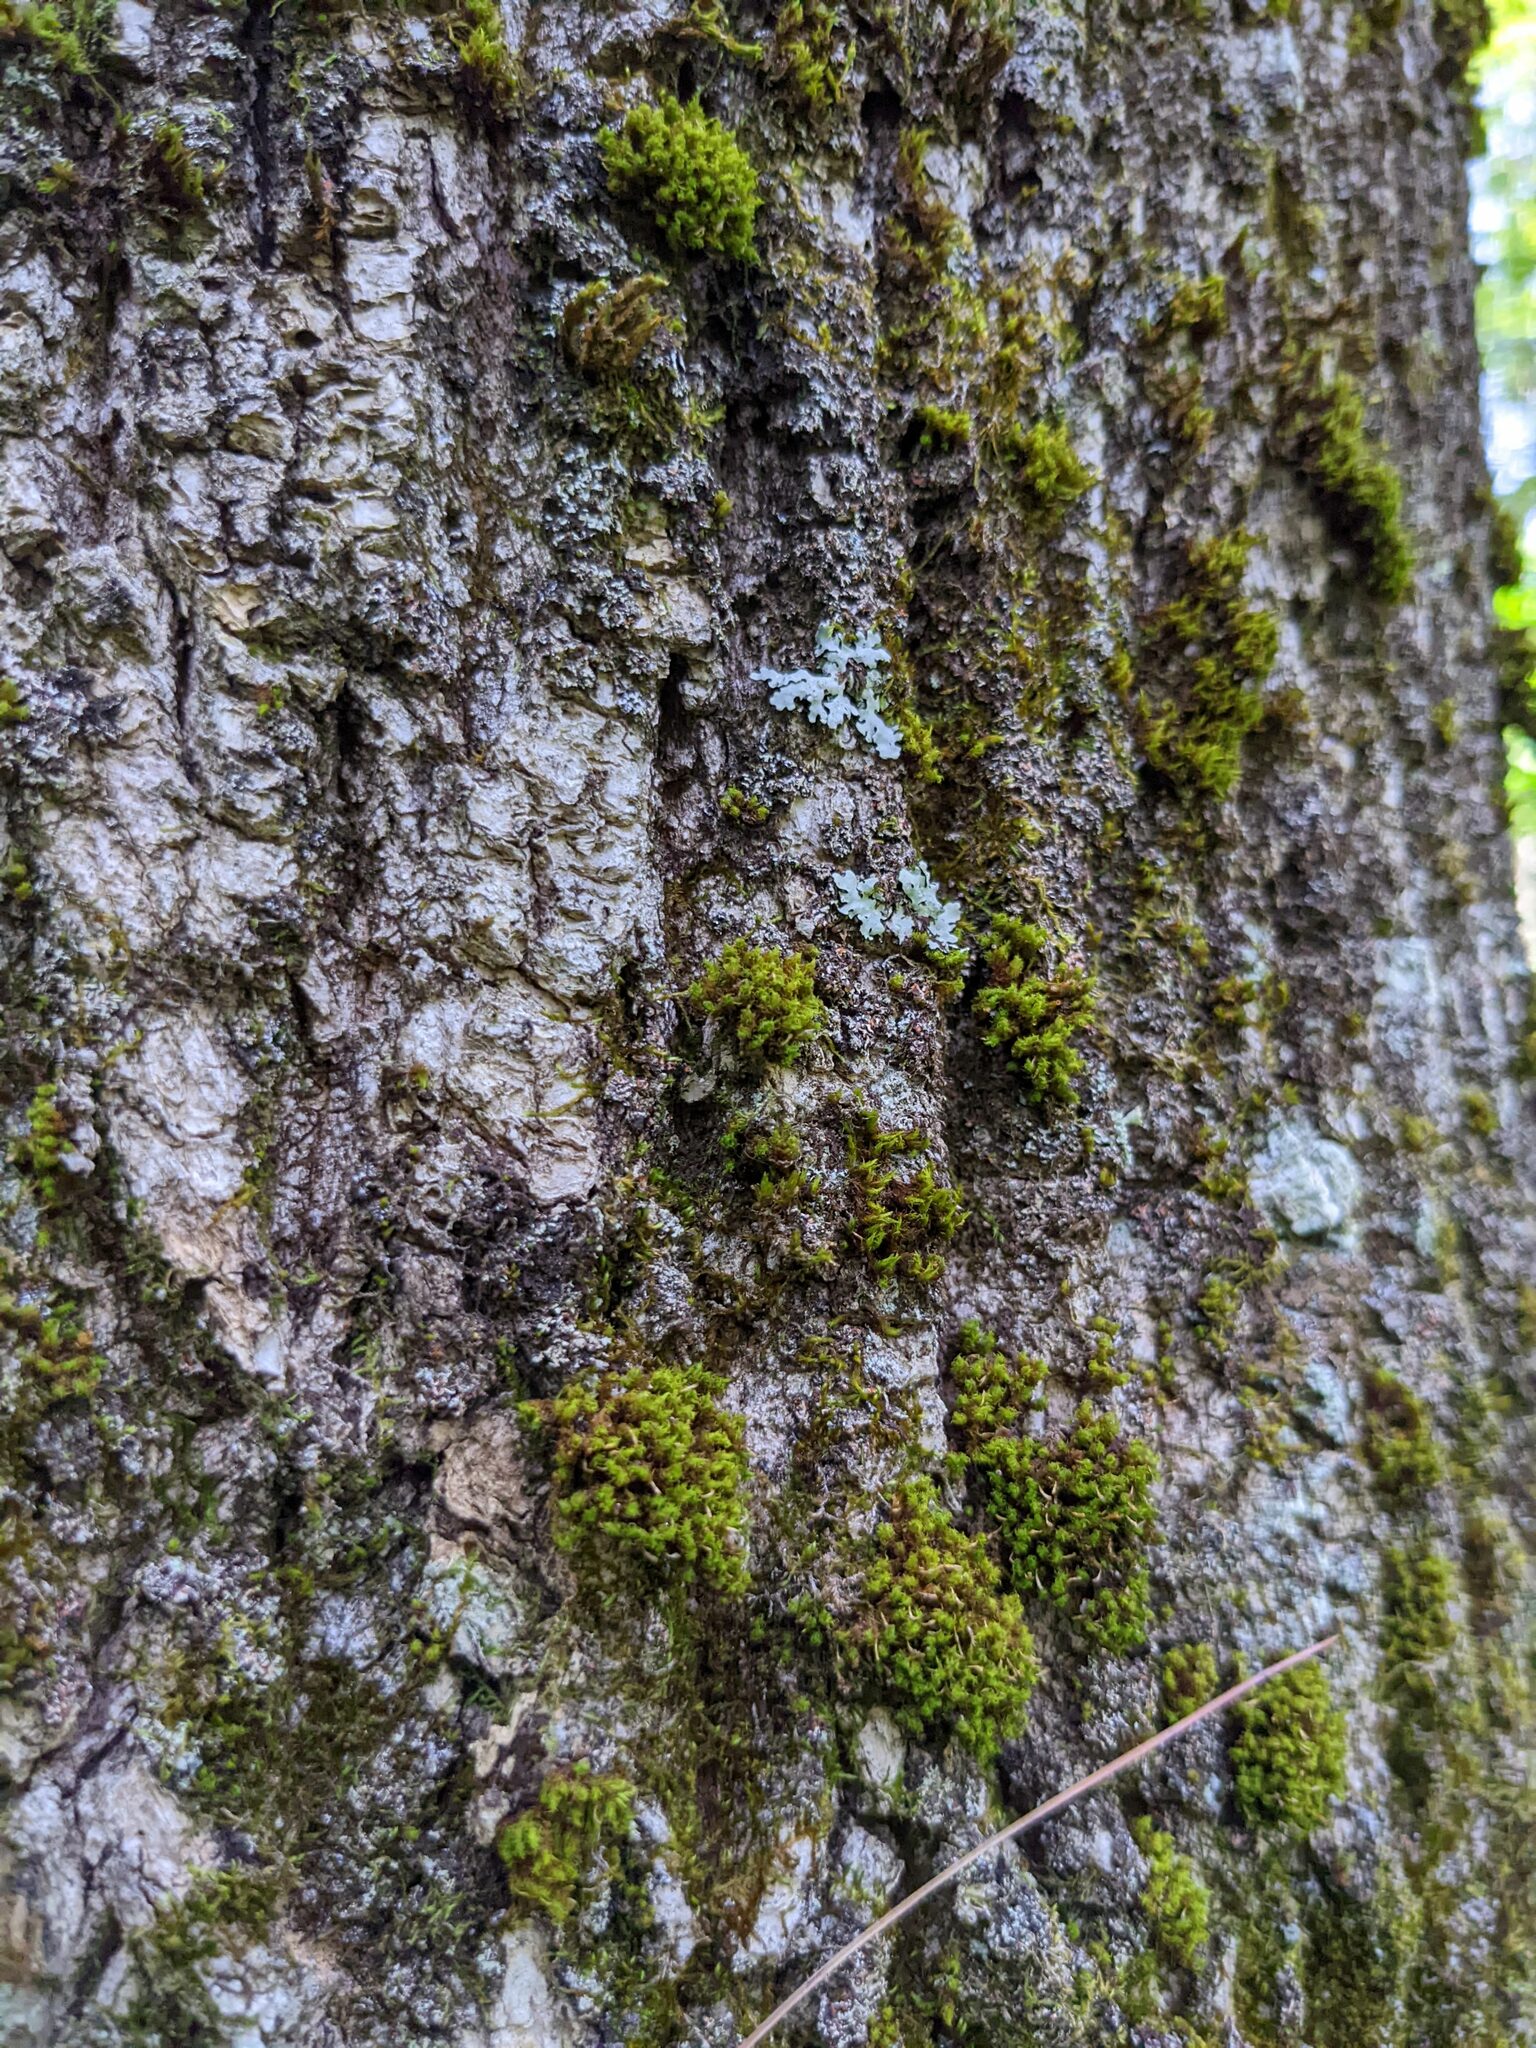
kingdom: Plantae
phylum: Bryophyta
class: Bryopsida
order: Orthotrichales
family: Orthotrichaceae
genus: Ulota
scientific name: Ulota crispa
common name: Crisped pincushion moss
